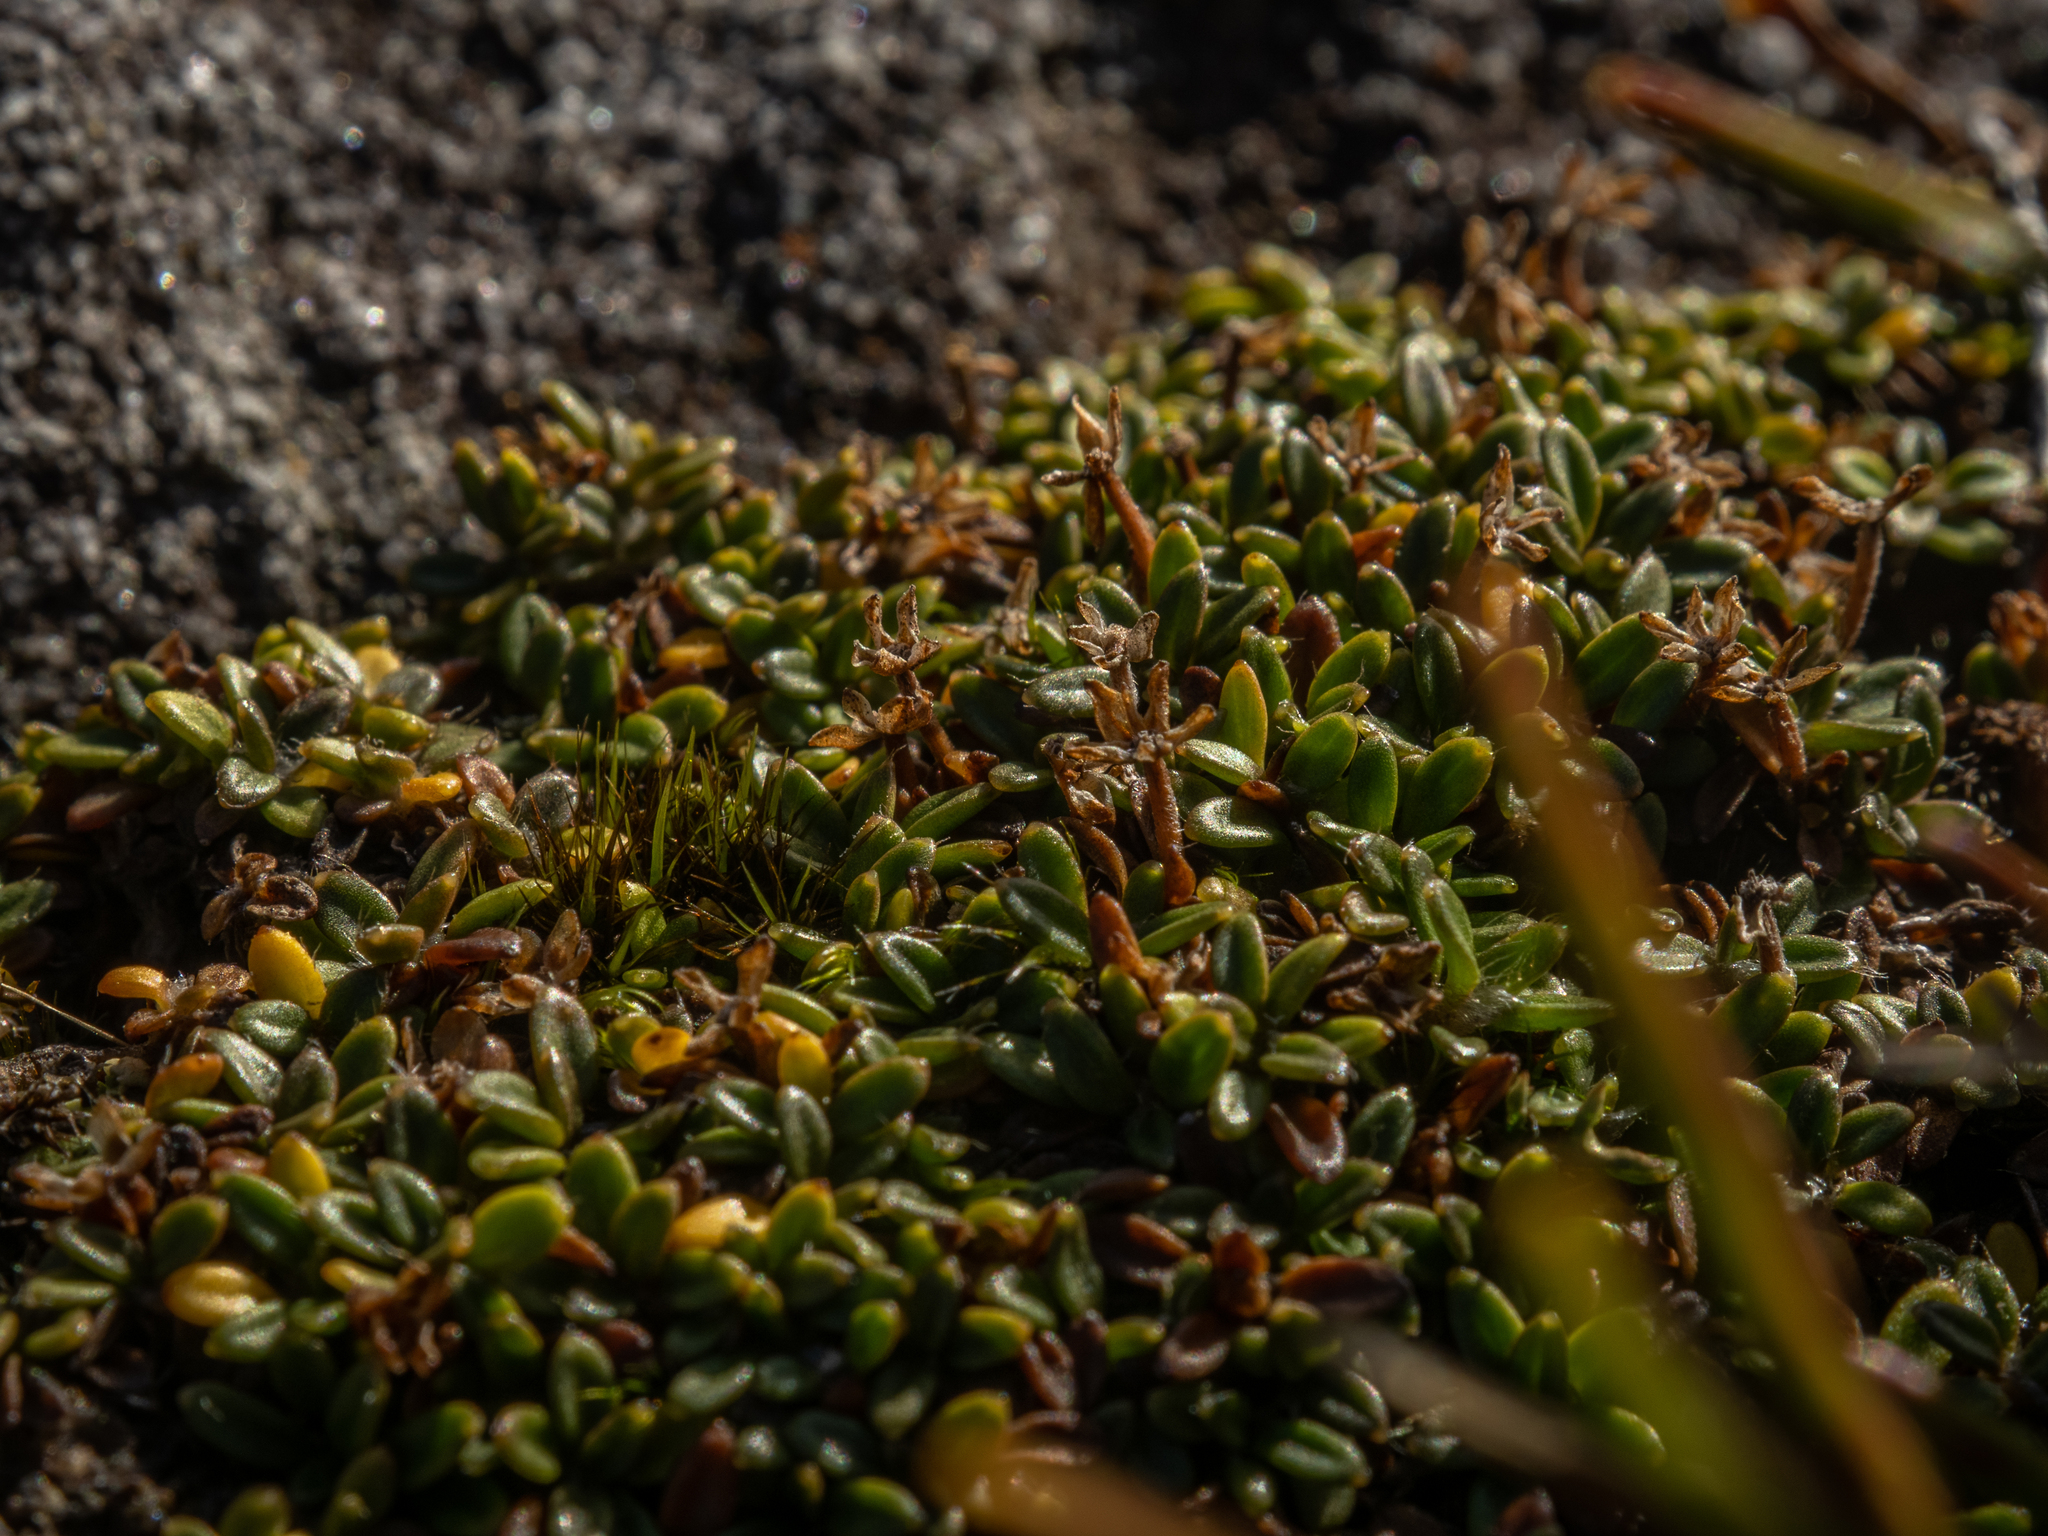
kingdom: Plantae
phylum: Tracheophyta
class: Magnoliopsida
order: Apiales
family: Apiaceae
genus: Actinotus
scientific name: Actinotus novae-zealandiae
